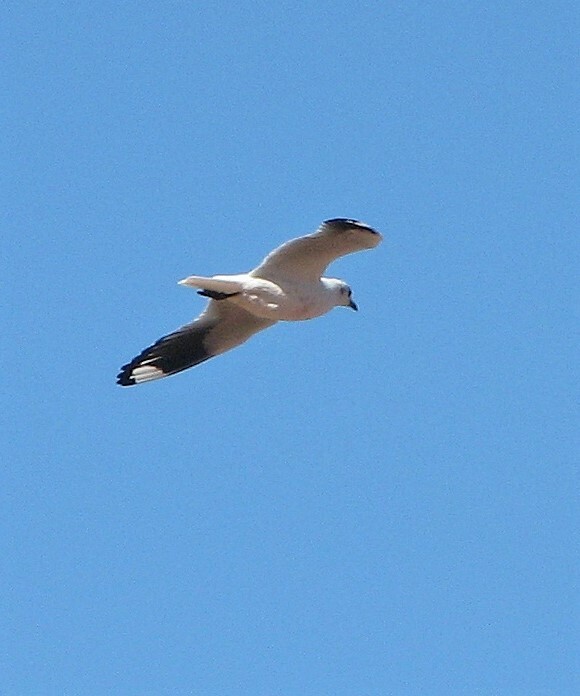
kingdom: Animalia
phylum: Chordata
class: Aves
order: Charadriiformes
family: Laridae
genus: Chroicocephalus
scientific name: Chroicocephalus serranus
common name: Andean gull
